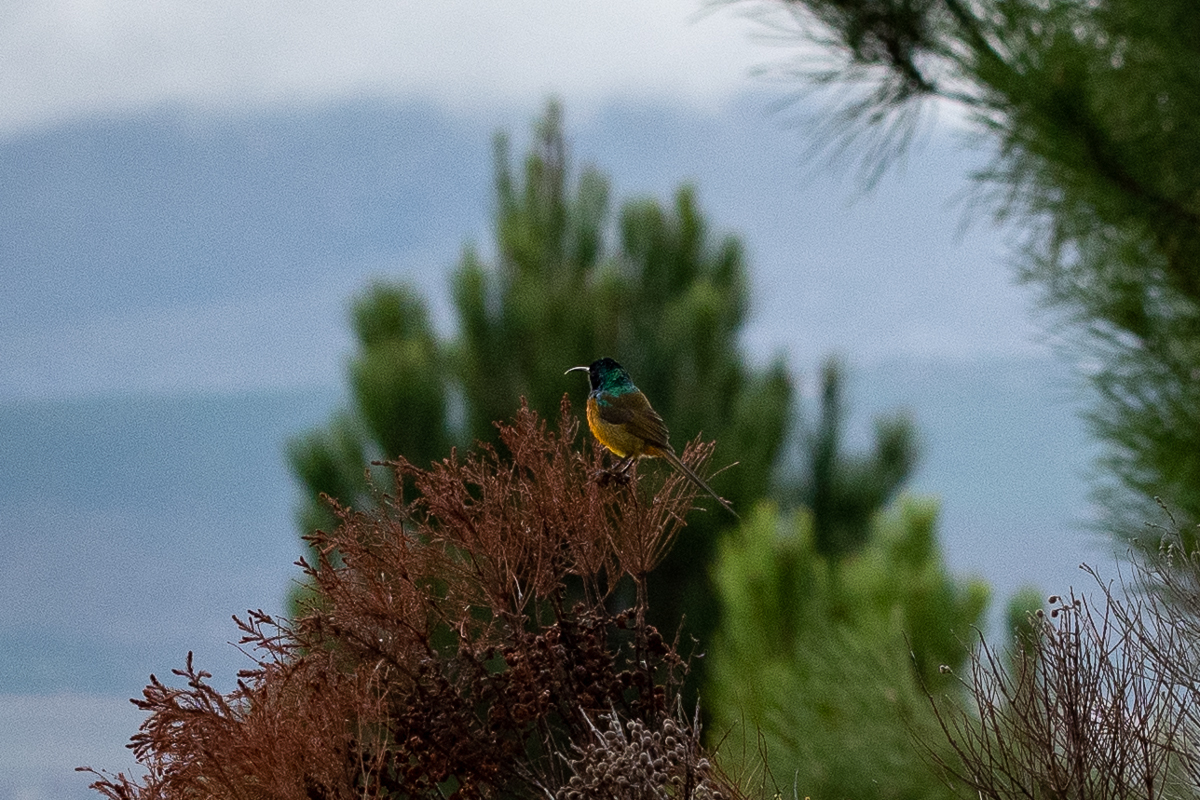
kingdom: Animalia
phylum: Chordata
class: Aves
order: Passeriformes
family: Nectariniidae
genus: Anthobaphes
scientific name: Anthobaphes violacea
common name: Orange-breasted sunbird
